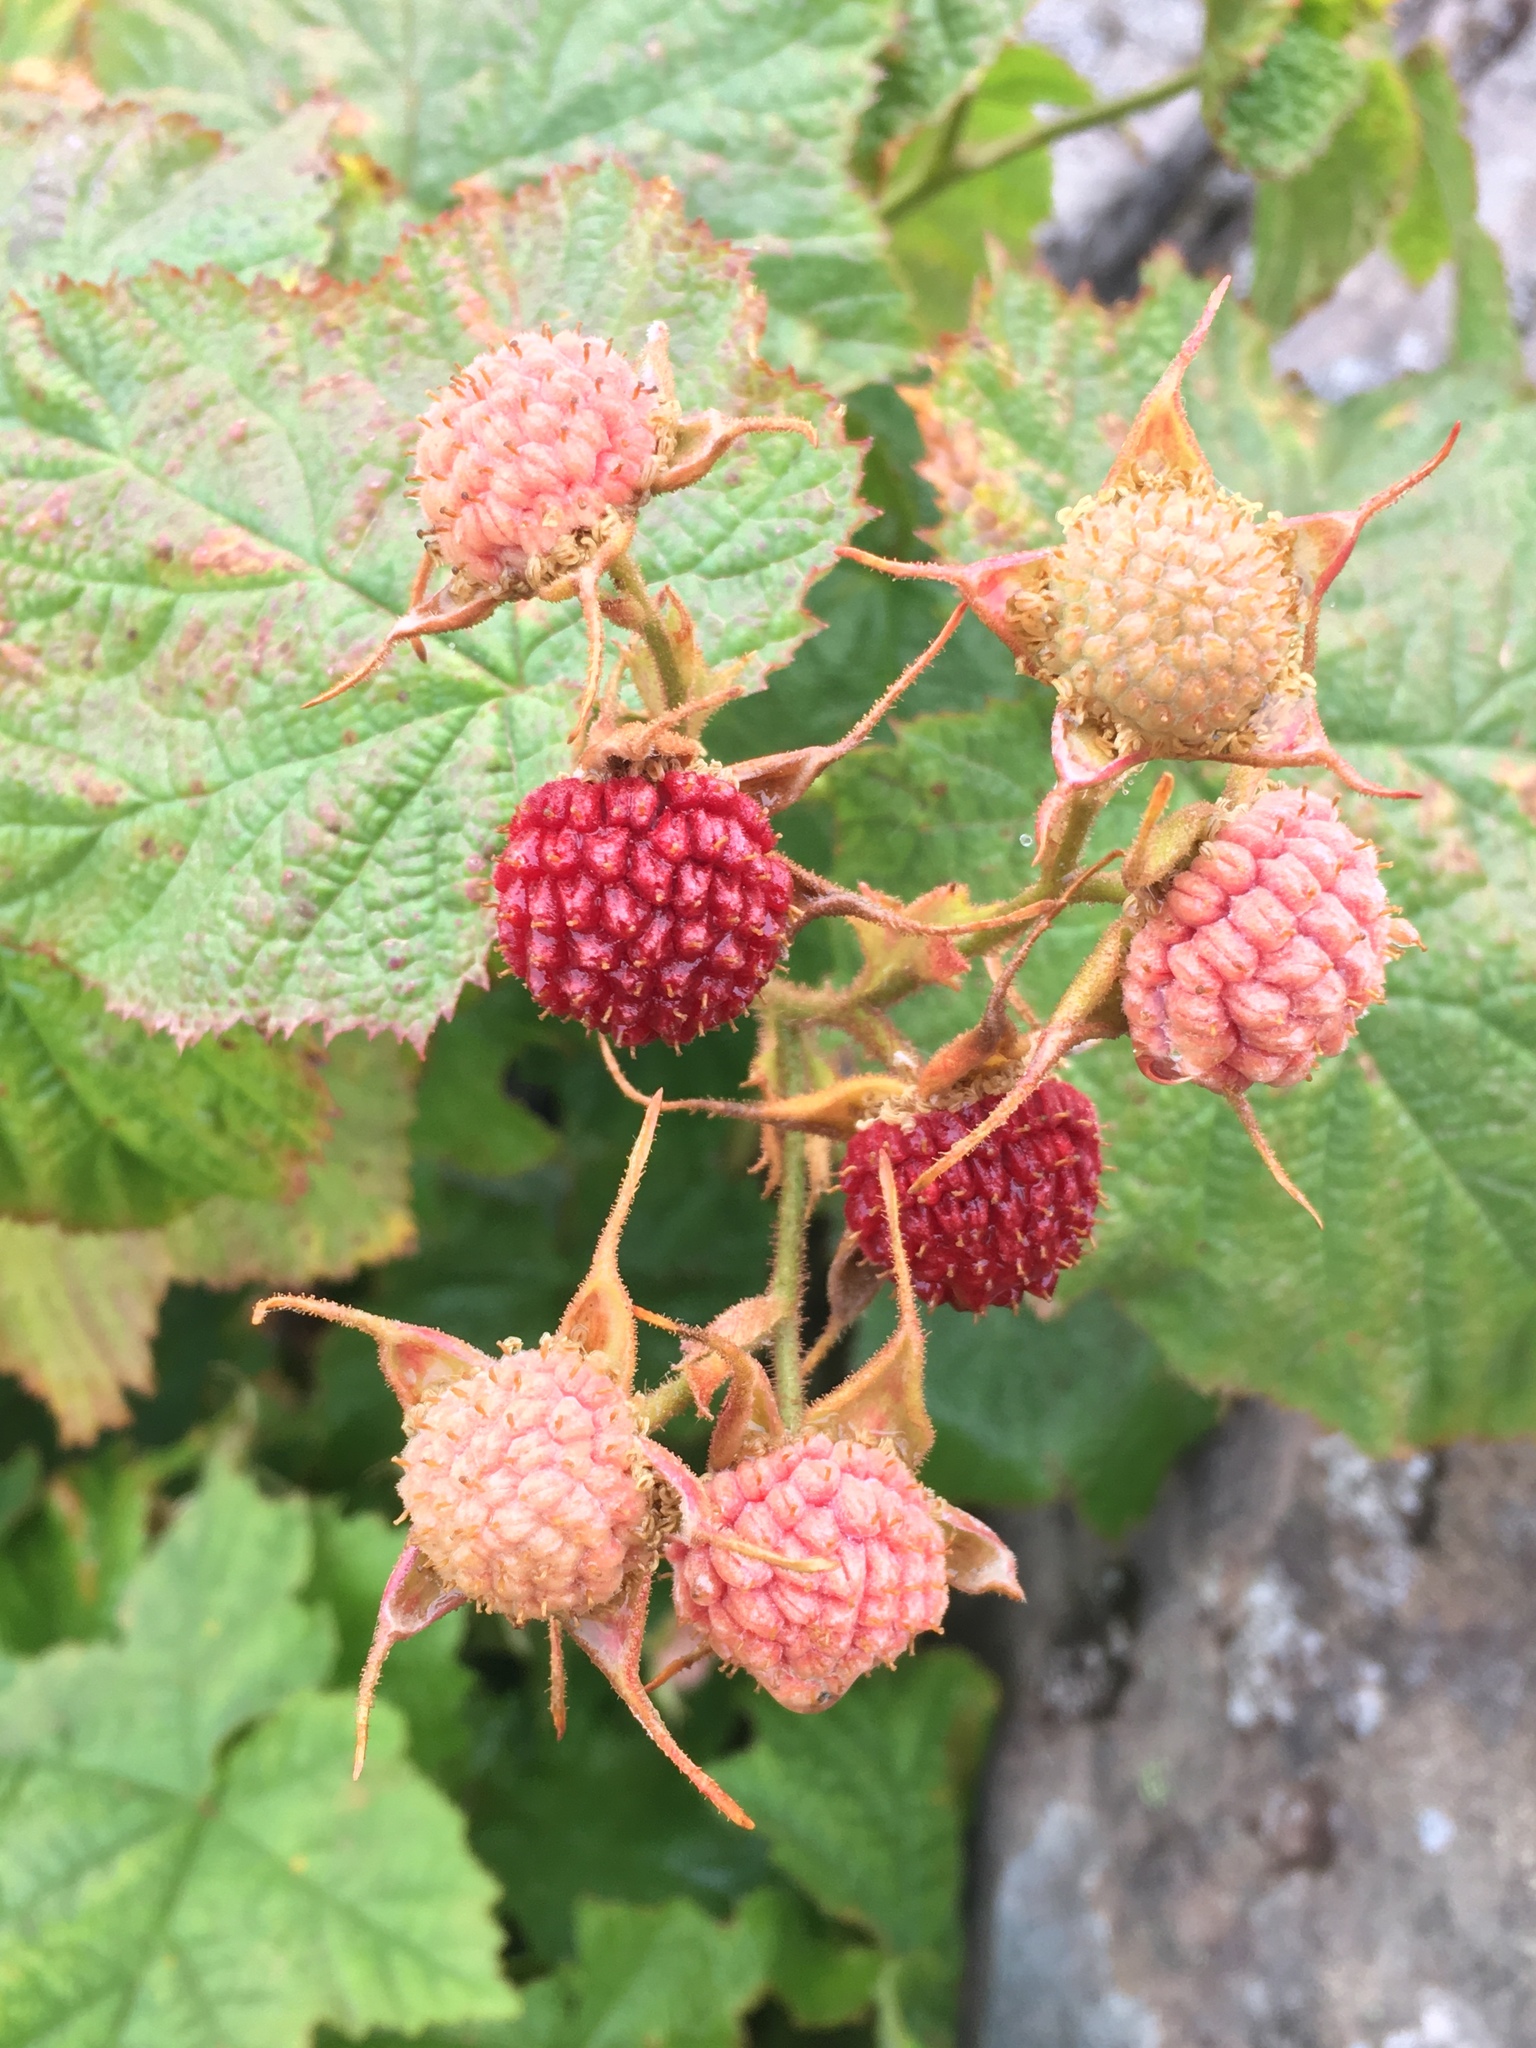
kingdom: Plantae
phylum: Tracheophyta
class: Magnoliopsida
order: Rosales
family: Rosaceae
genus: Rubus
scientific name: Rubus parviflorus
